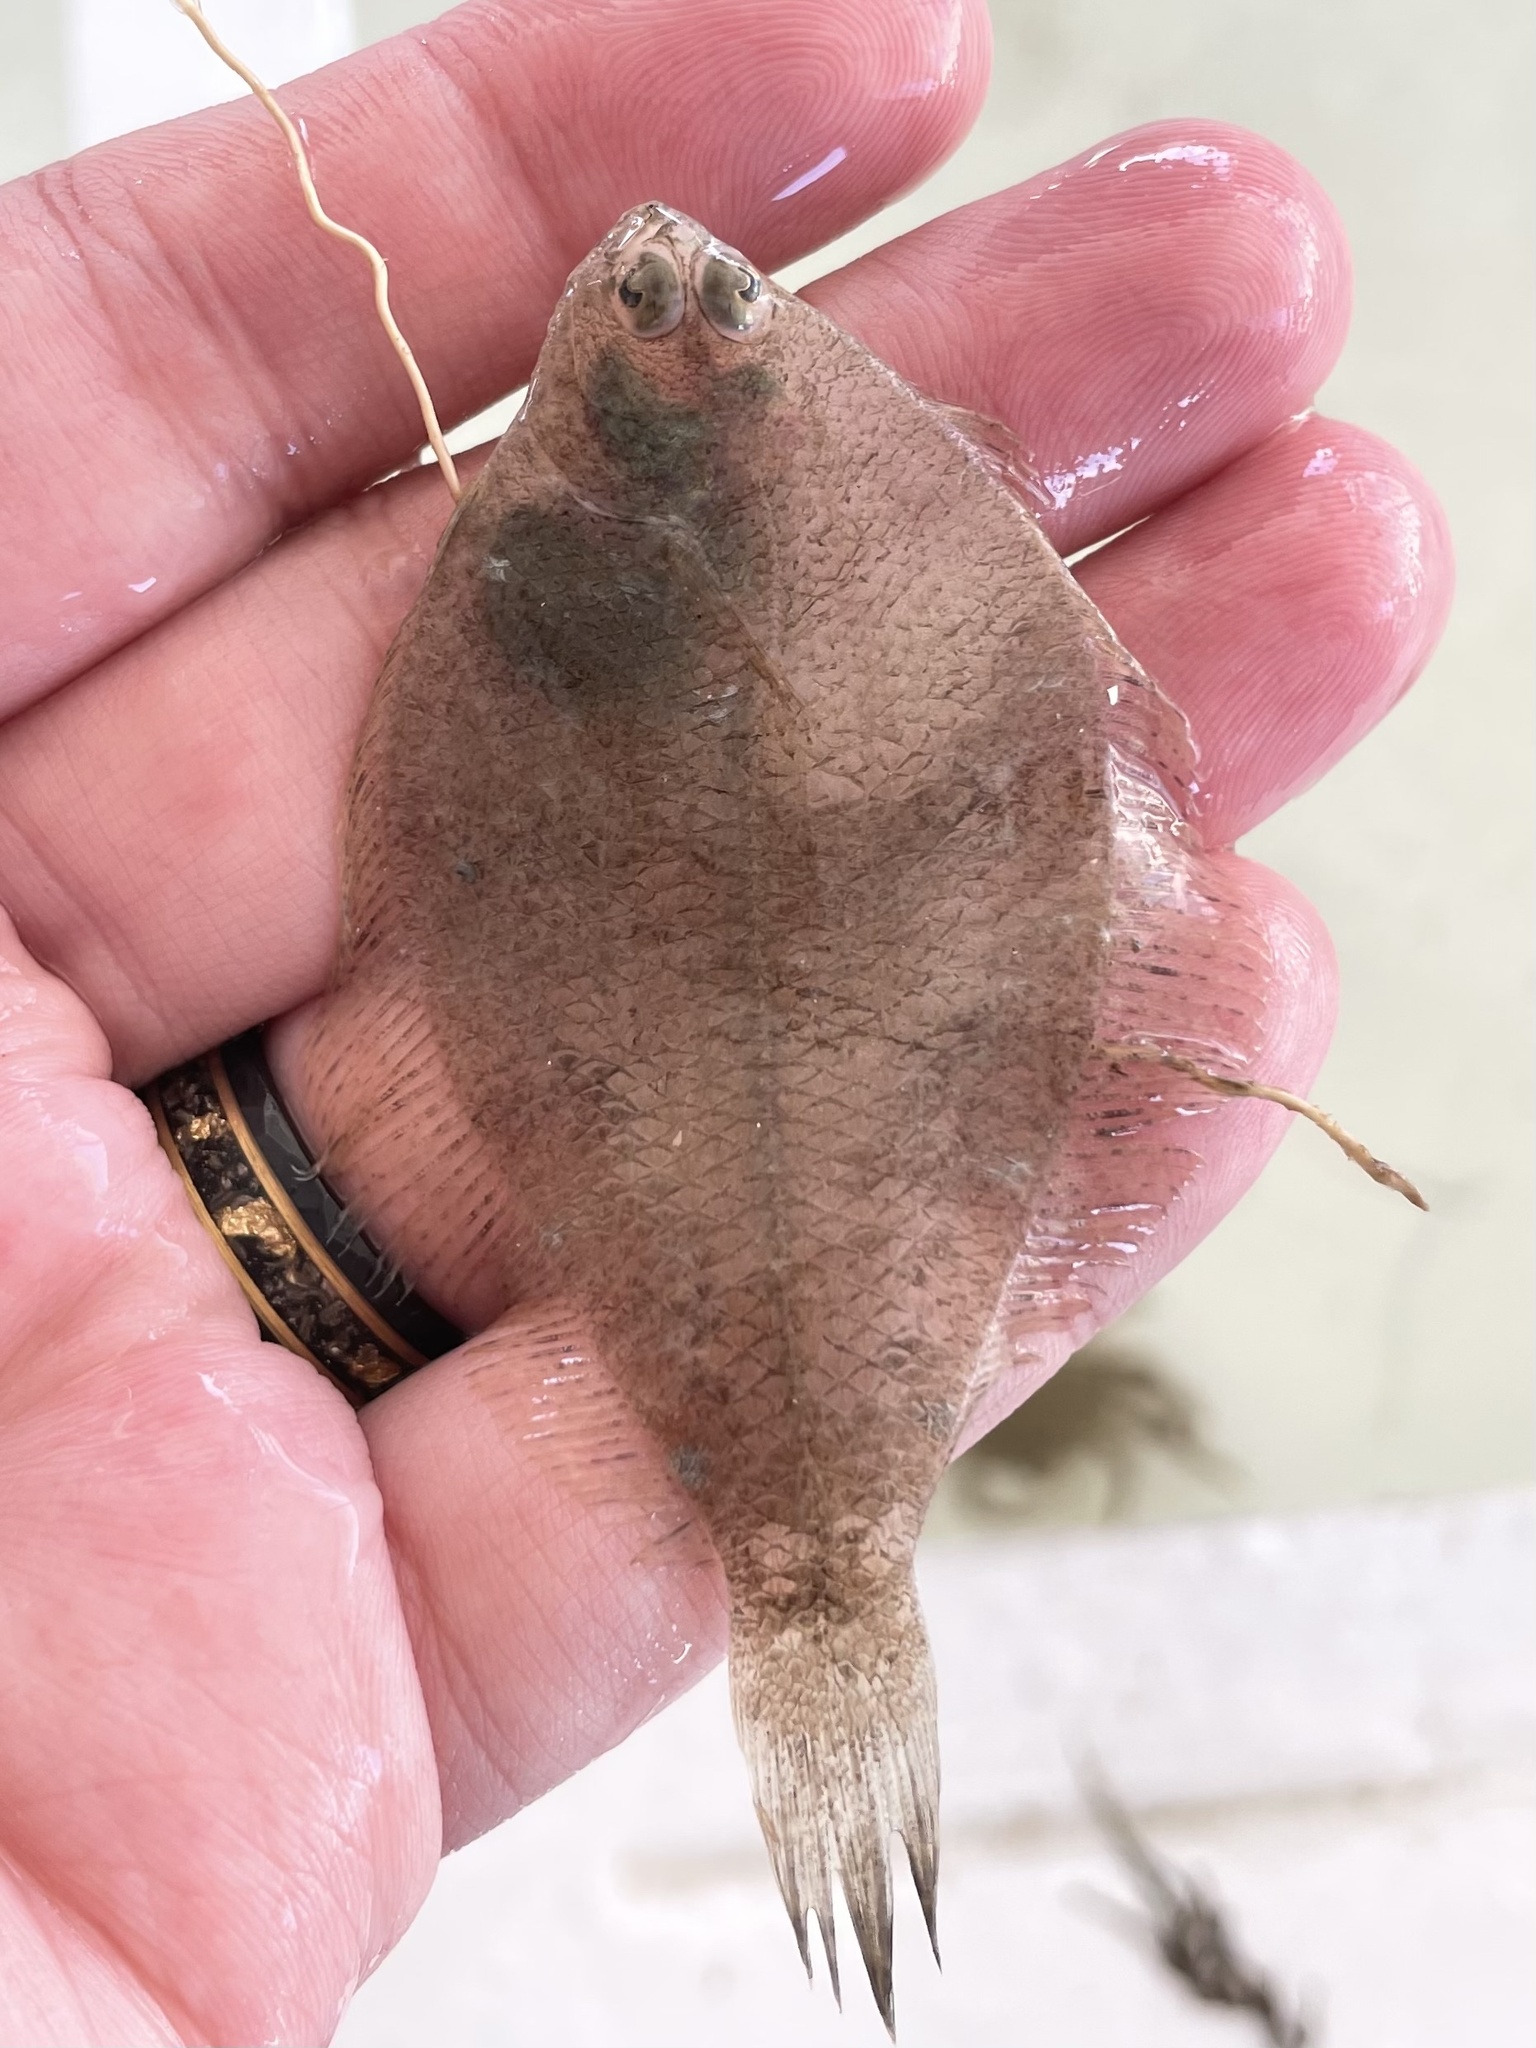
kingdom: Animalia
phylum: Chordata
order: Pleuronectiformes
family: Paralichthyidae
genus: Etropus
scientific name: Etropus crossotus
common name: Fringed flounder
